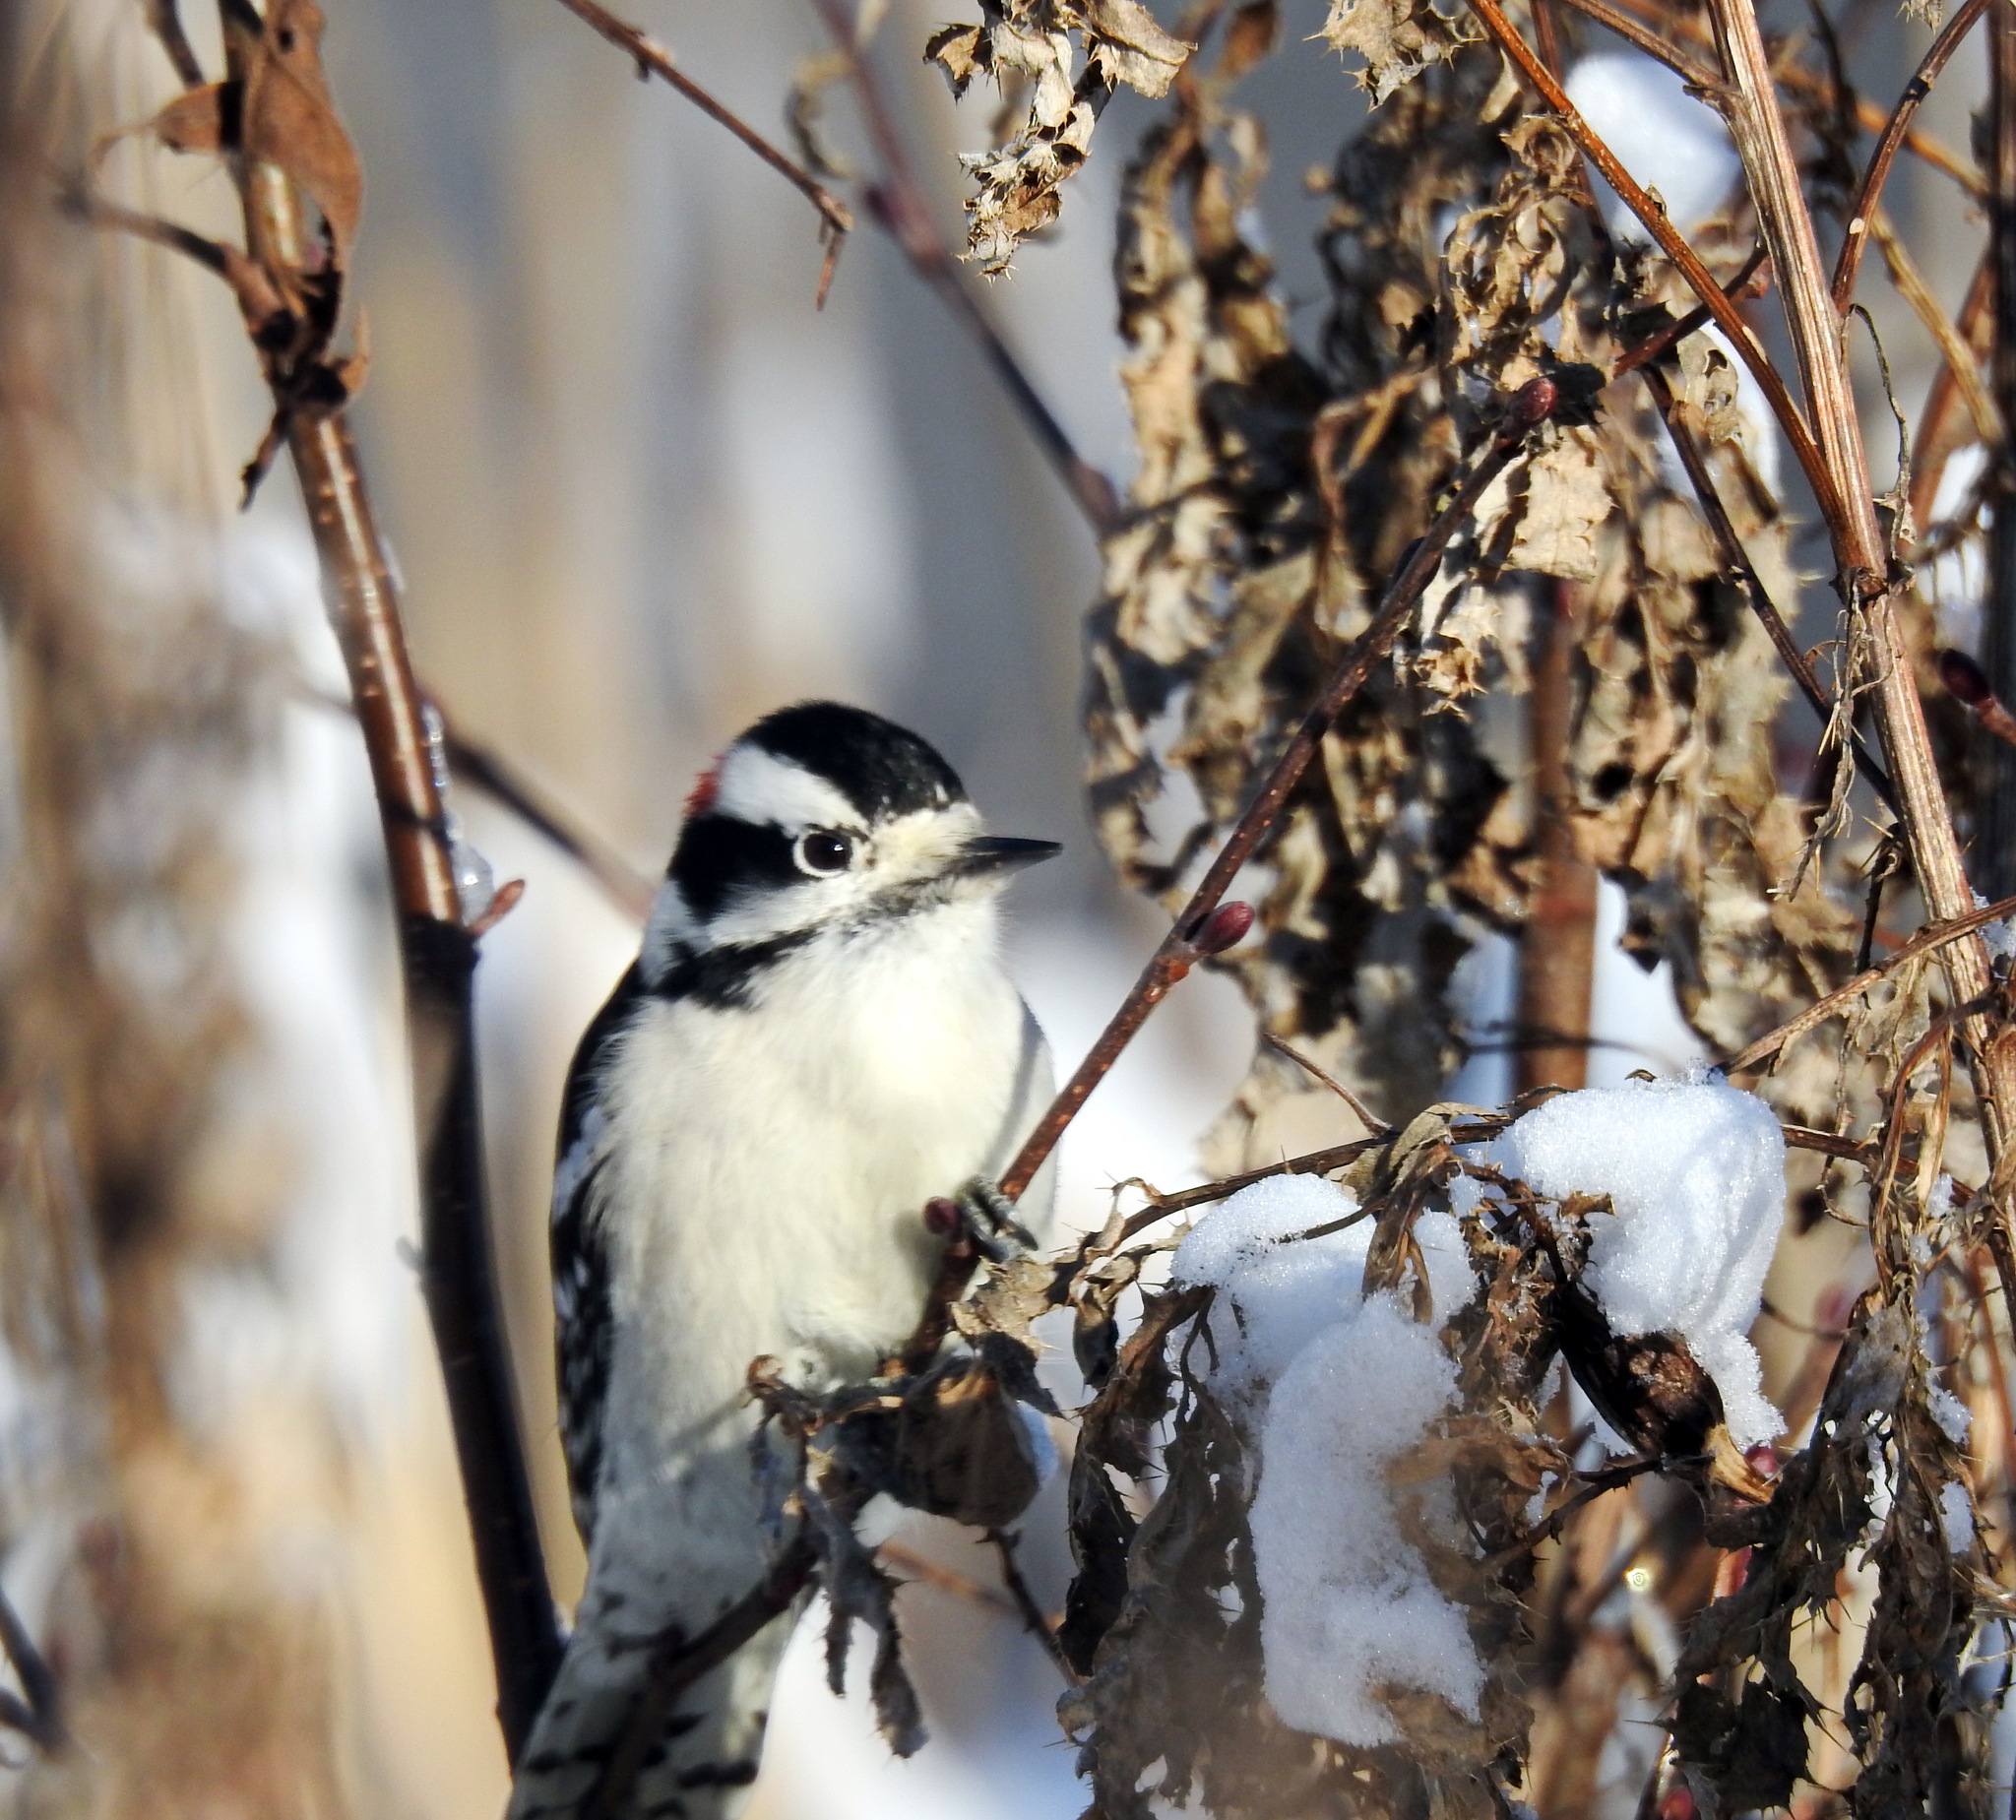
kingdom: Animalia
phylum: Chordata
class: Aves
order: Piciformes
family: Picidae
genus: Dryobates
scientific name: Dryobates pubescens
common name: Downy woodpecker
